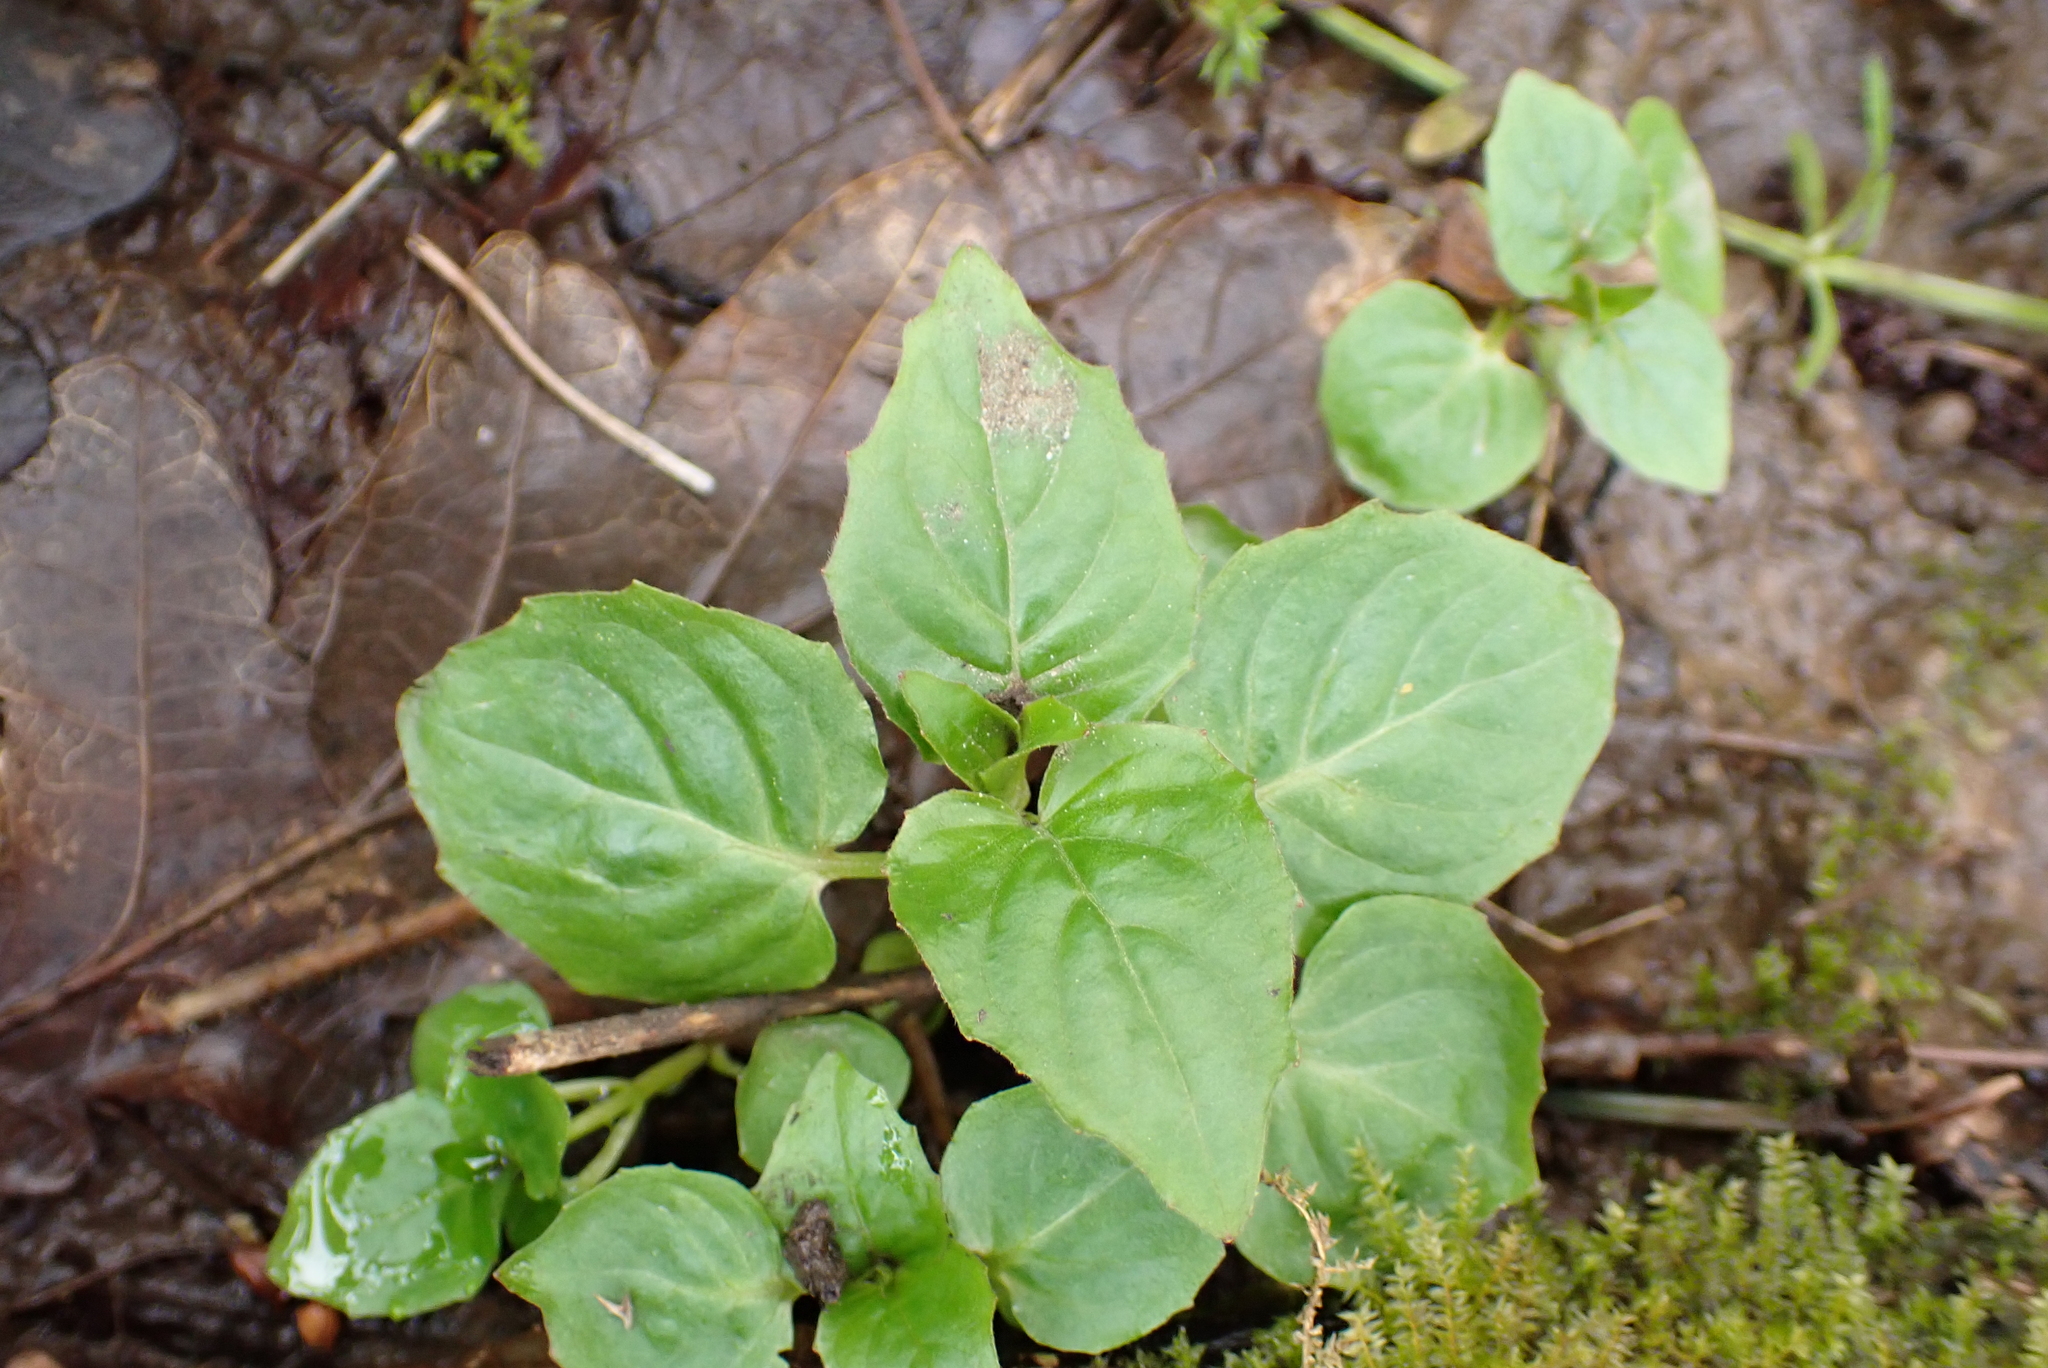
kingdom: Plantae
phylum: Tracheophyta
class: Magnoliopsida
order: Myrtales
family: Onagraceae
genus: Circaea
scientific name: Circaea lutetiana
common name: Enchanter's-nightshade
